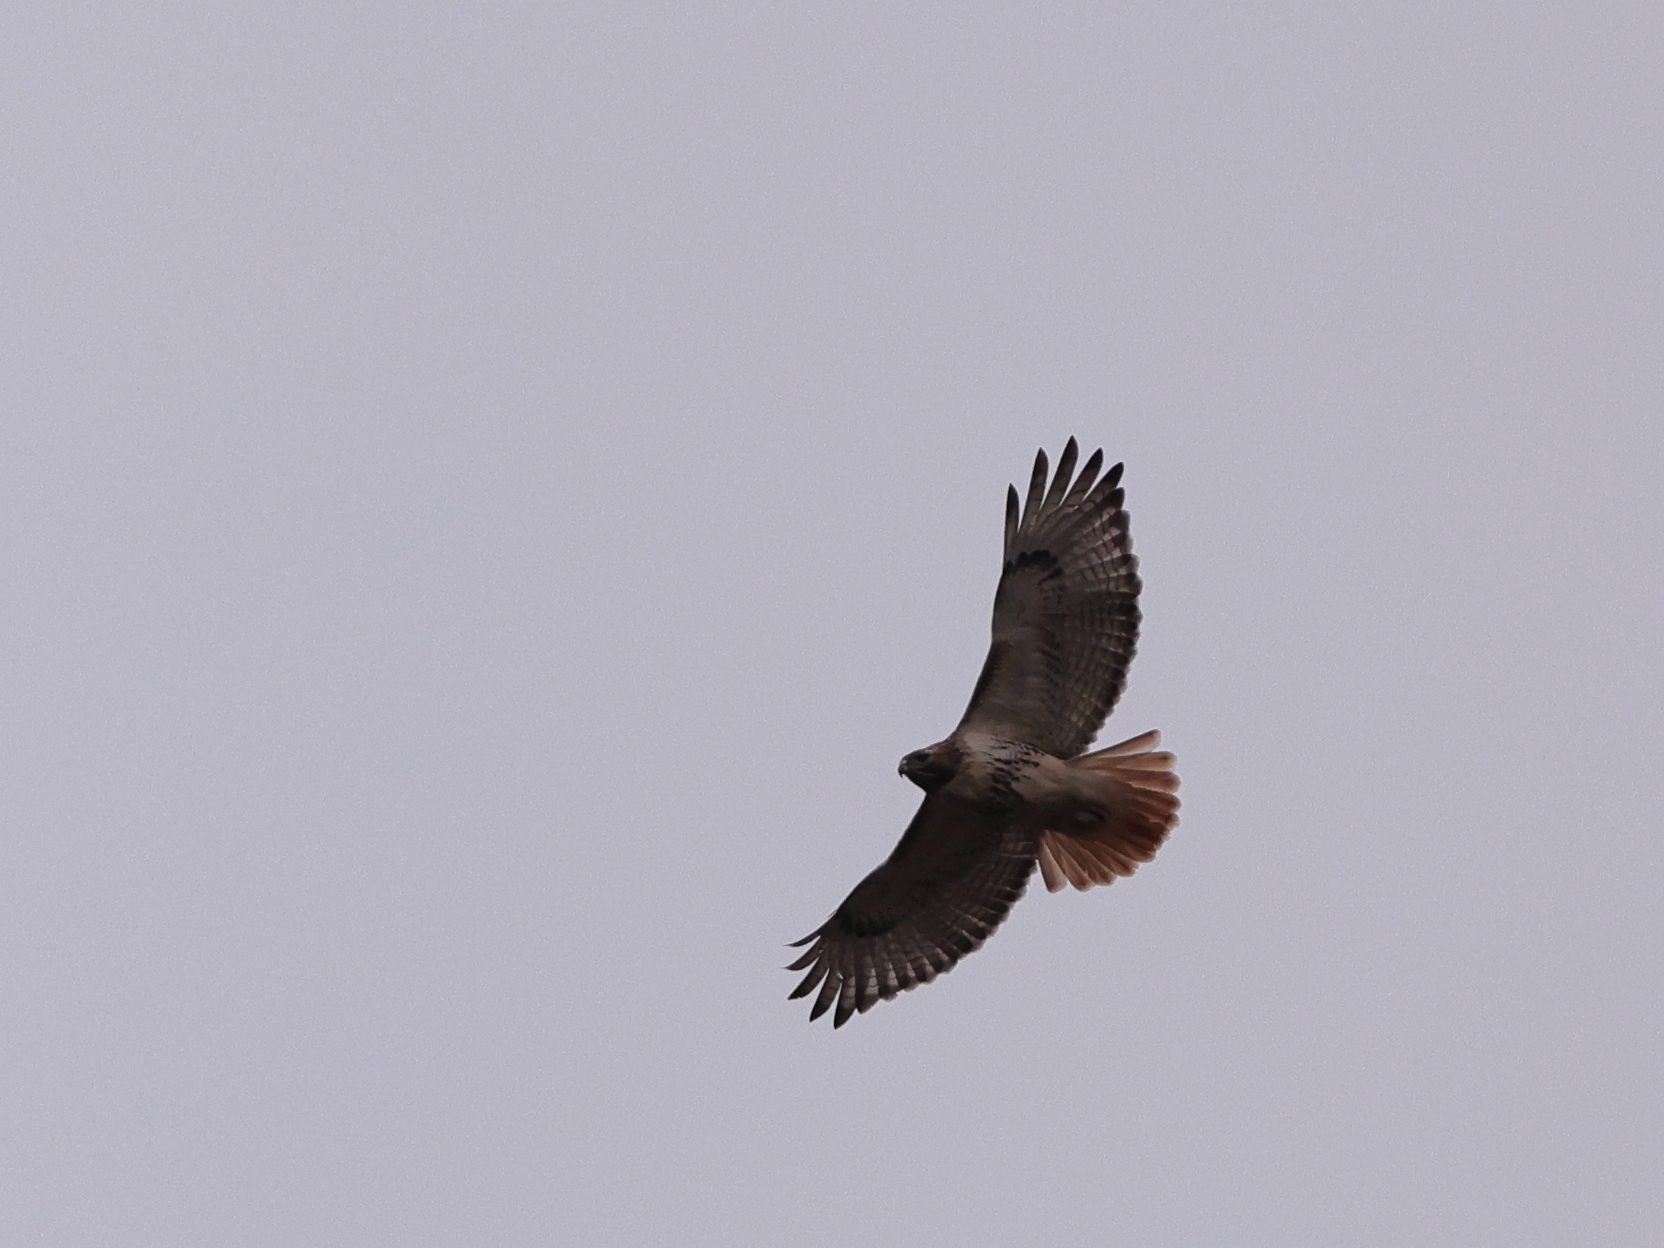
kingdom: Animalia
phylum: Chordata
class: Aves
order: Accipitriformes
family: Accipitridae
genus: Buteo
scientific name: Buteo jamaicensis
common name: Red-tailed hawk
